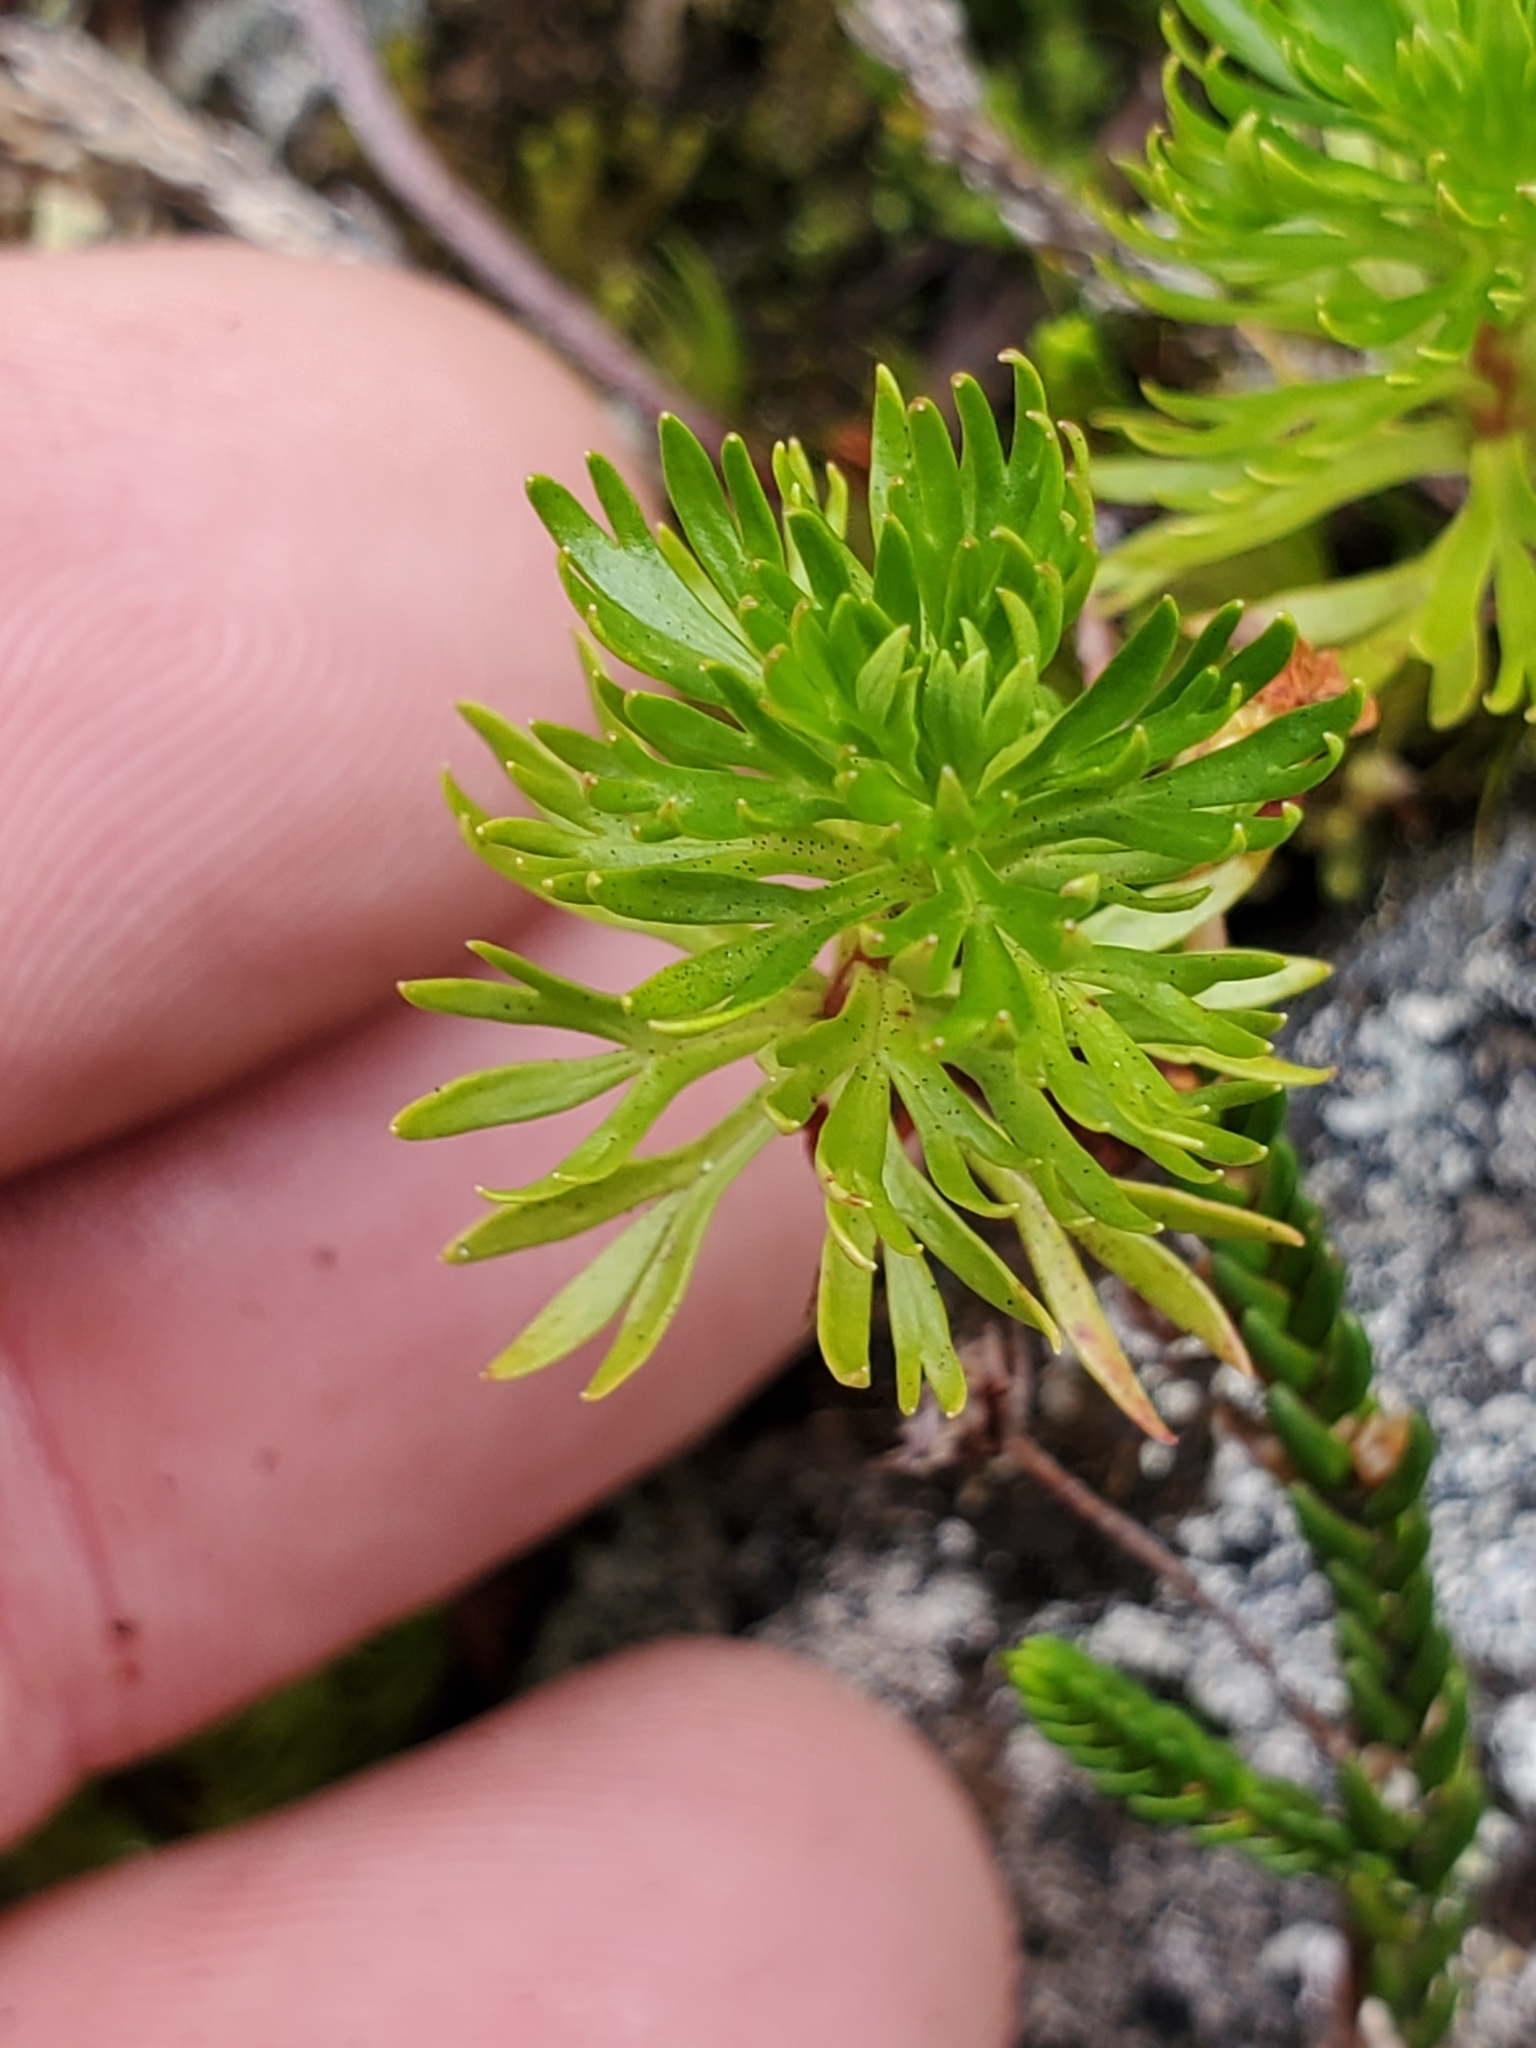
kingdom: Plantae
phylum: Tracheophyta
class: Magnoliopsida
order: Rosales
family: Rosaceae
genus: Luetkea
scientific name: Luetkea pectinata
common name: Partridgefoot
